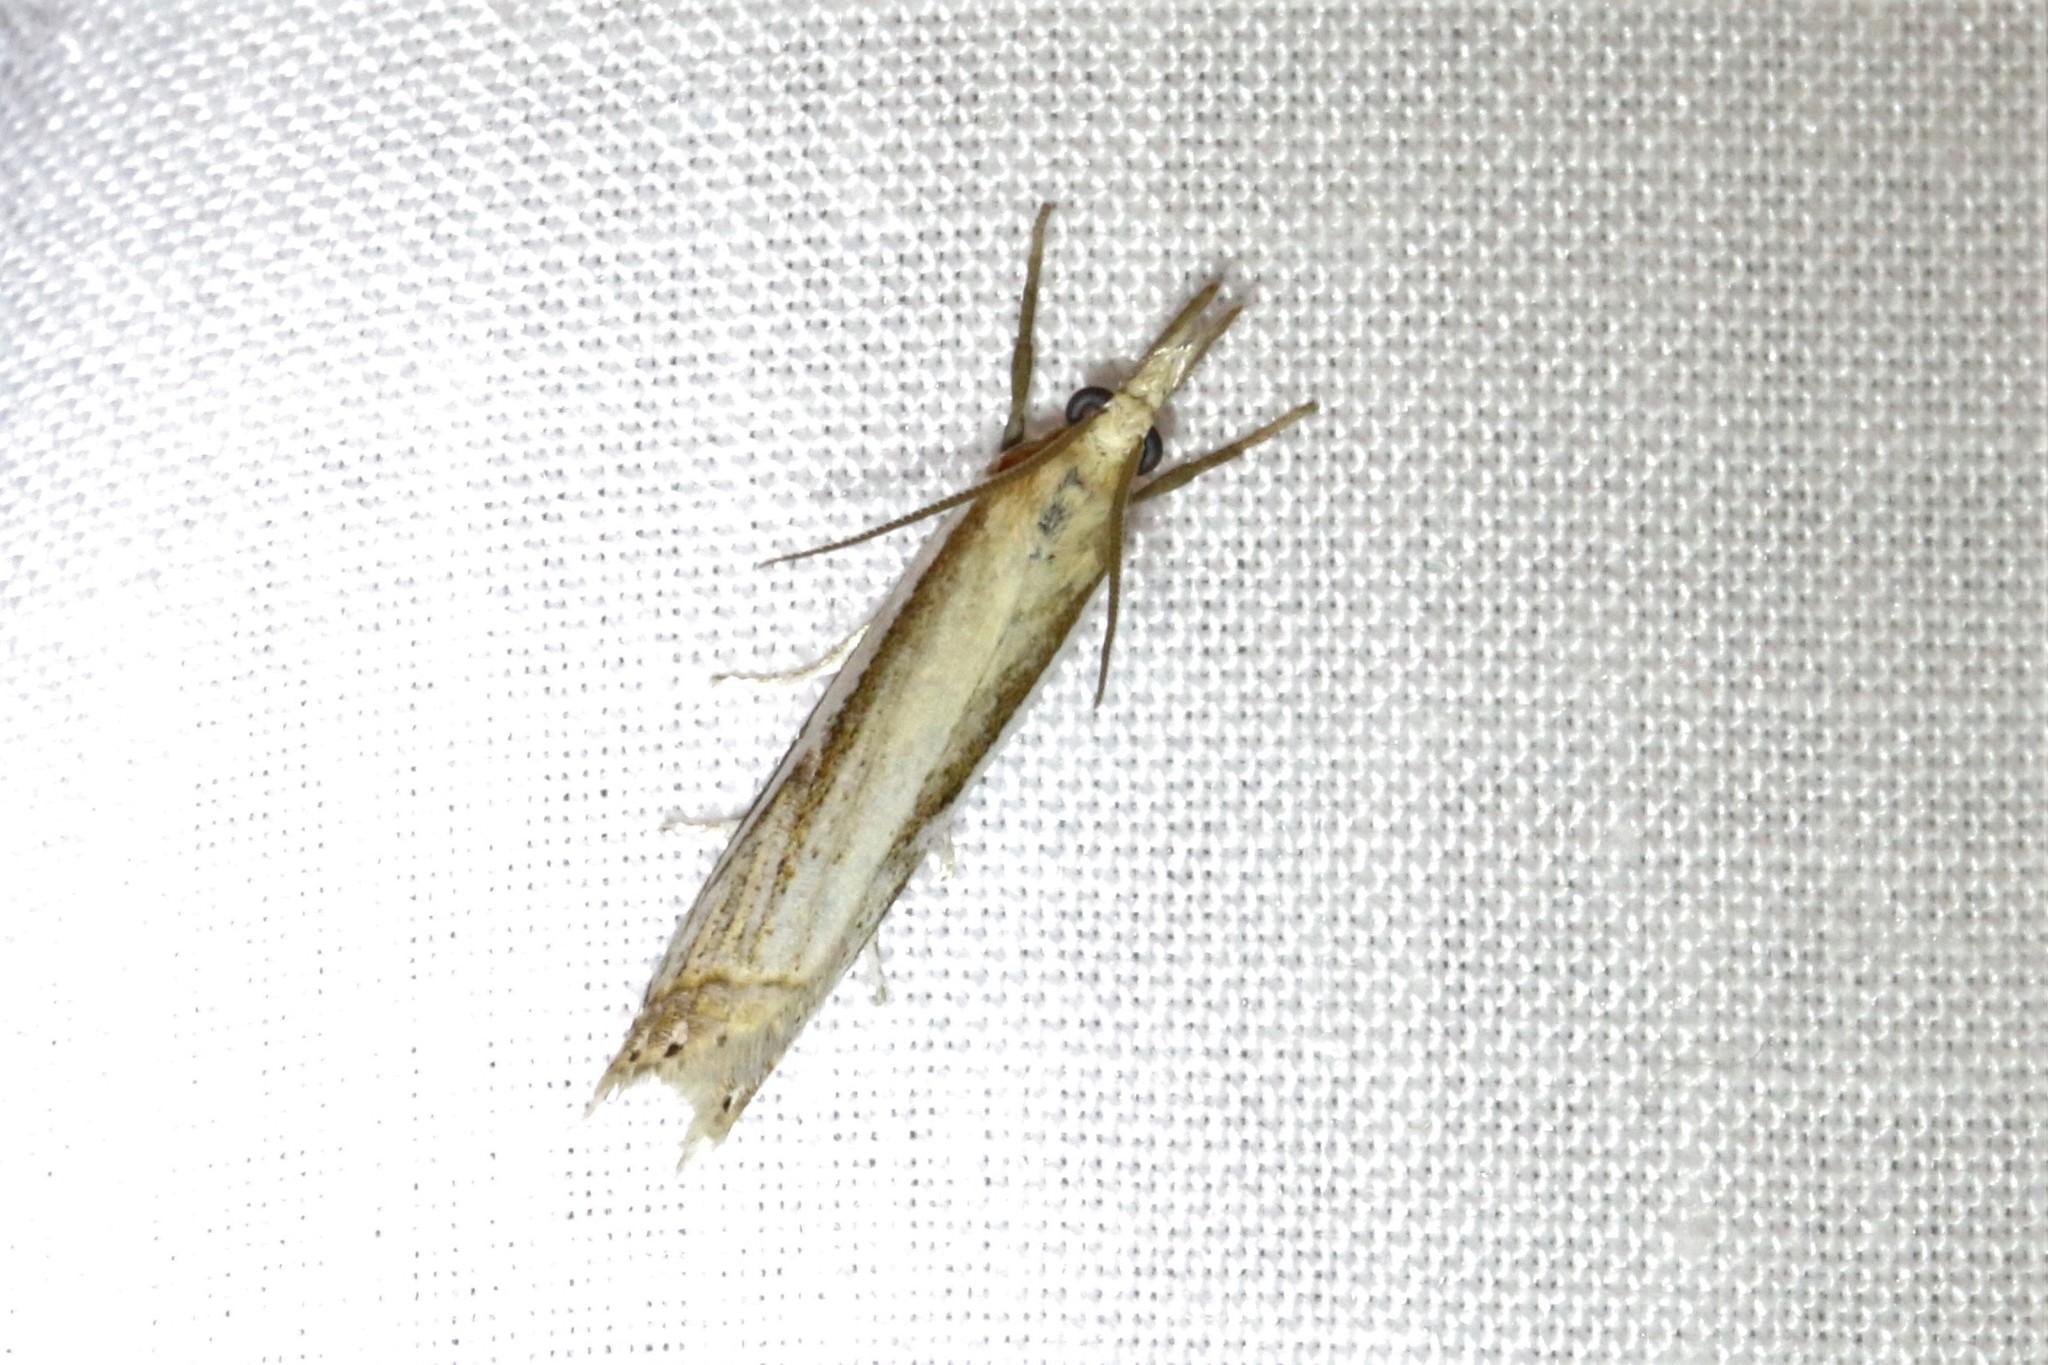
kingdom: Animalia
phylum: Arthropoda
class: Insecta
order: Lepidoptera
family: Crambidae
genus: Crambus
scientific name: Crambus
